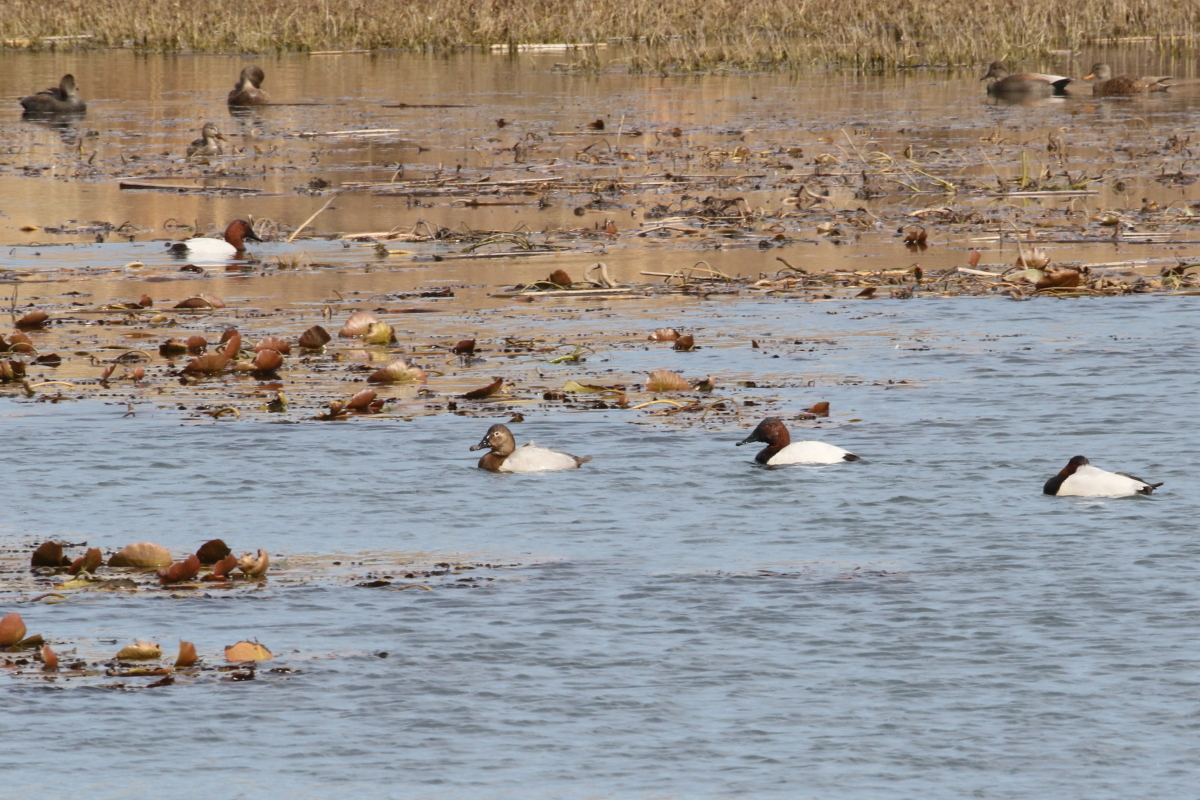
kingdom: Animalia
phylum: Chordata
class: Aves
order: Anseriformes
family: Anatidae
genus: Aythya
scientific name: Aythya valisineria
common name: Canvasback
